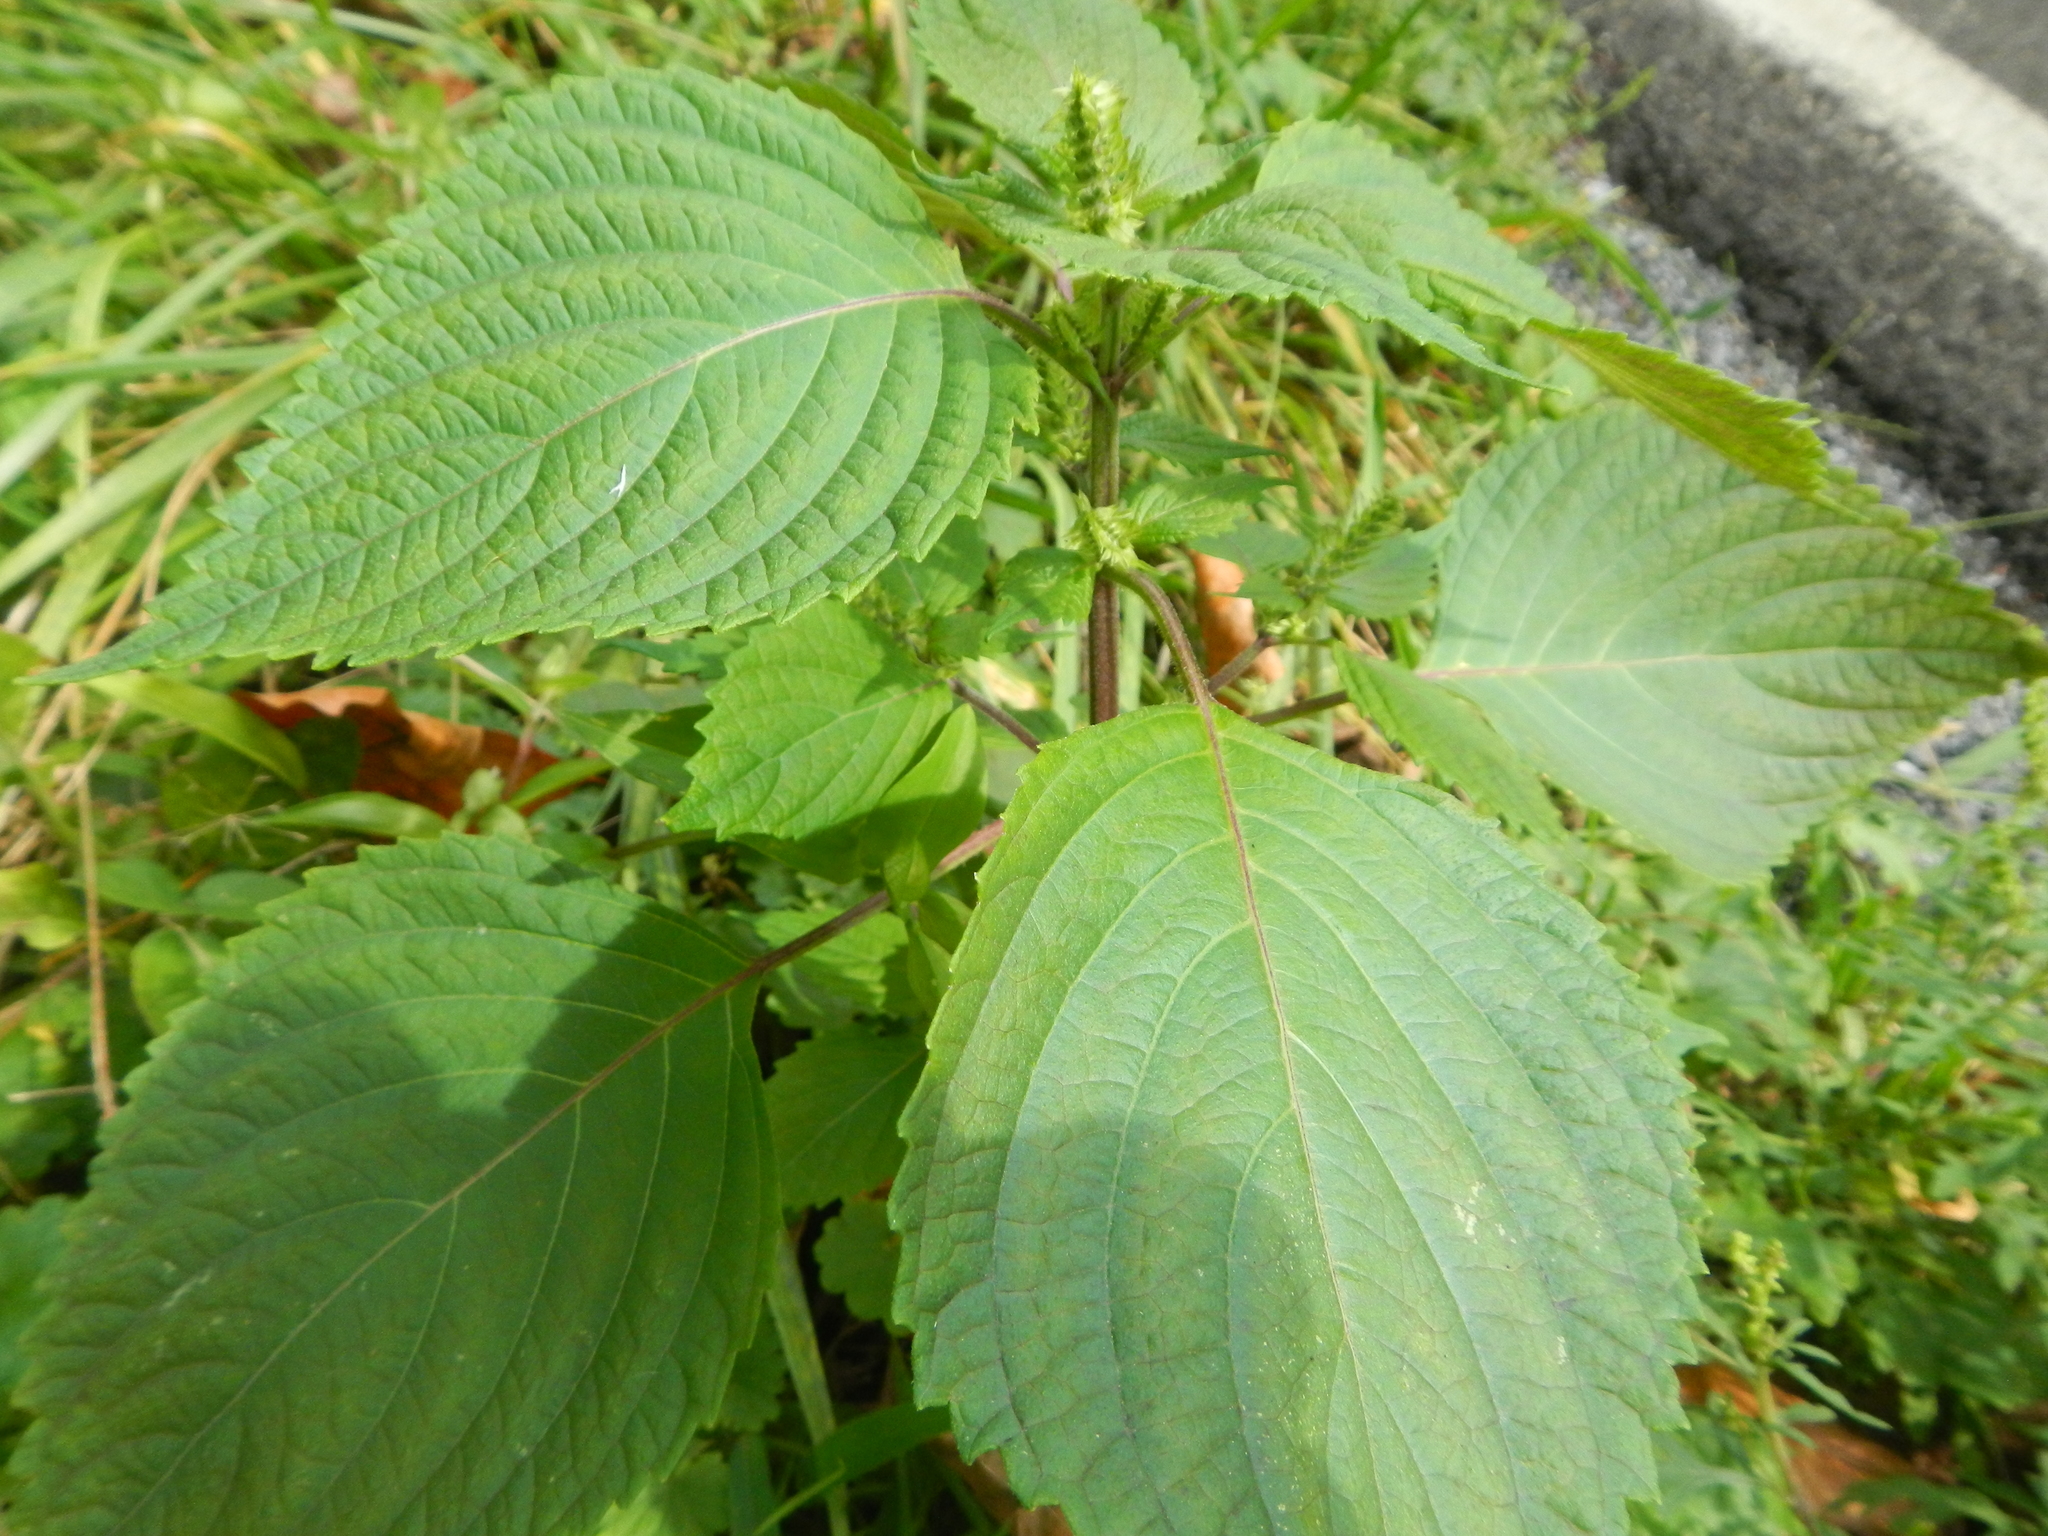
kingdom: Plantae
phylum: Tracheophyta
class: Magnoliopsida
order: Lamiales
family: Lamiaceae
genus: Perilla
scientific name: Perilla frutescens
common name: Perilla
